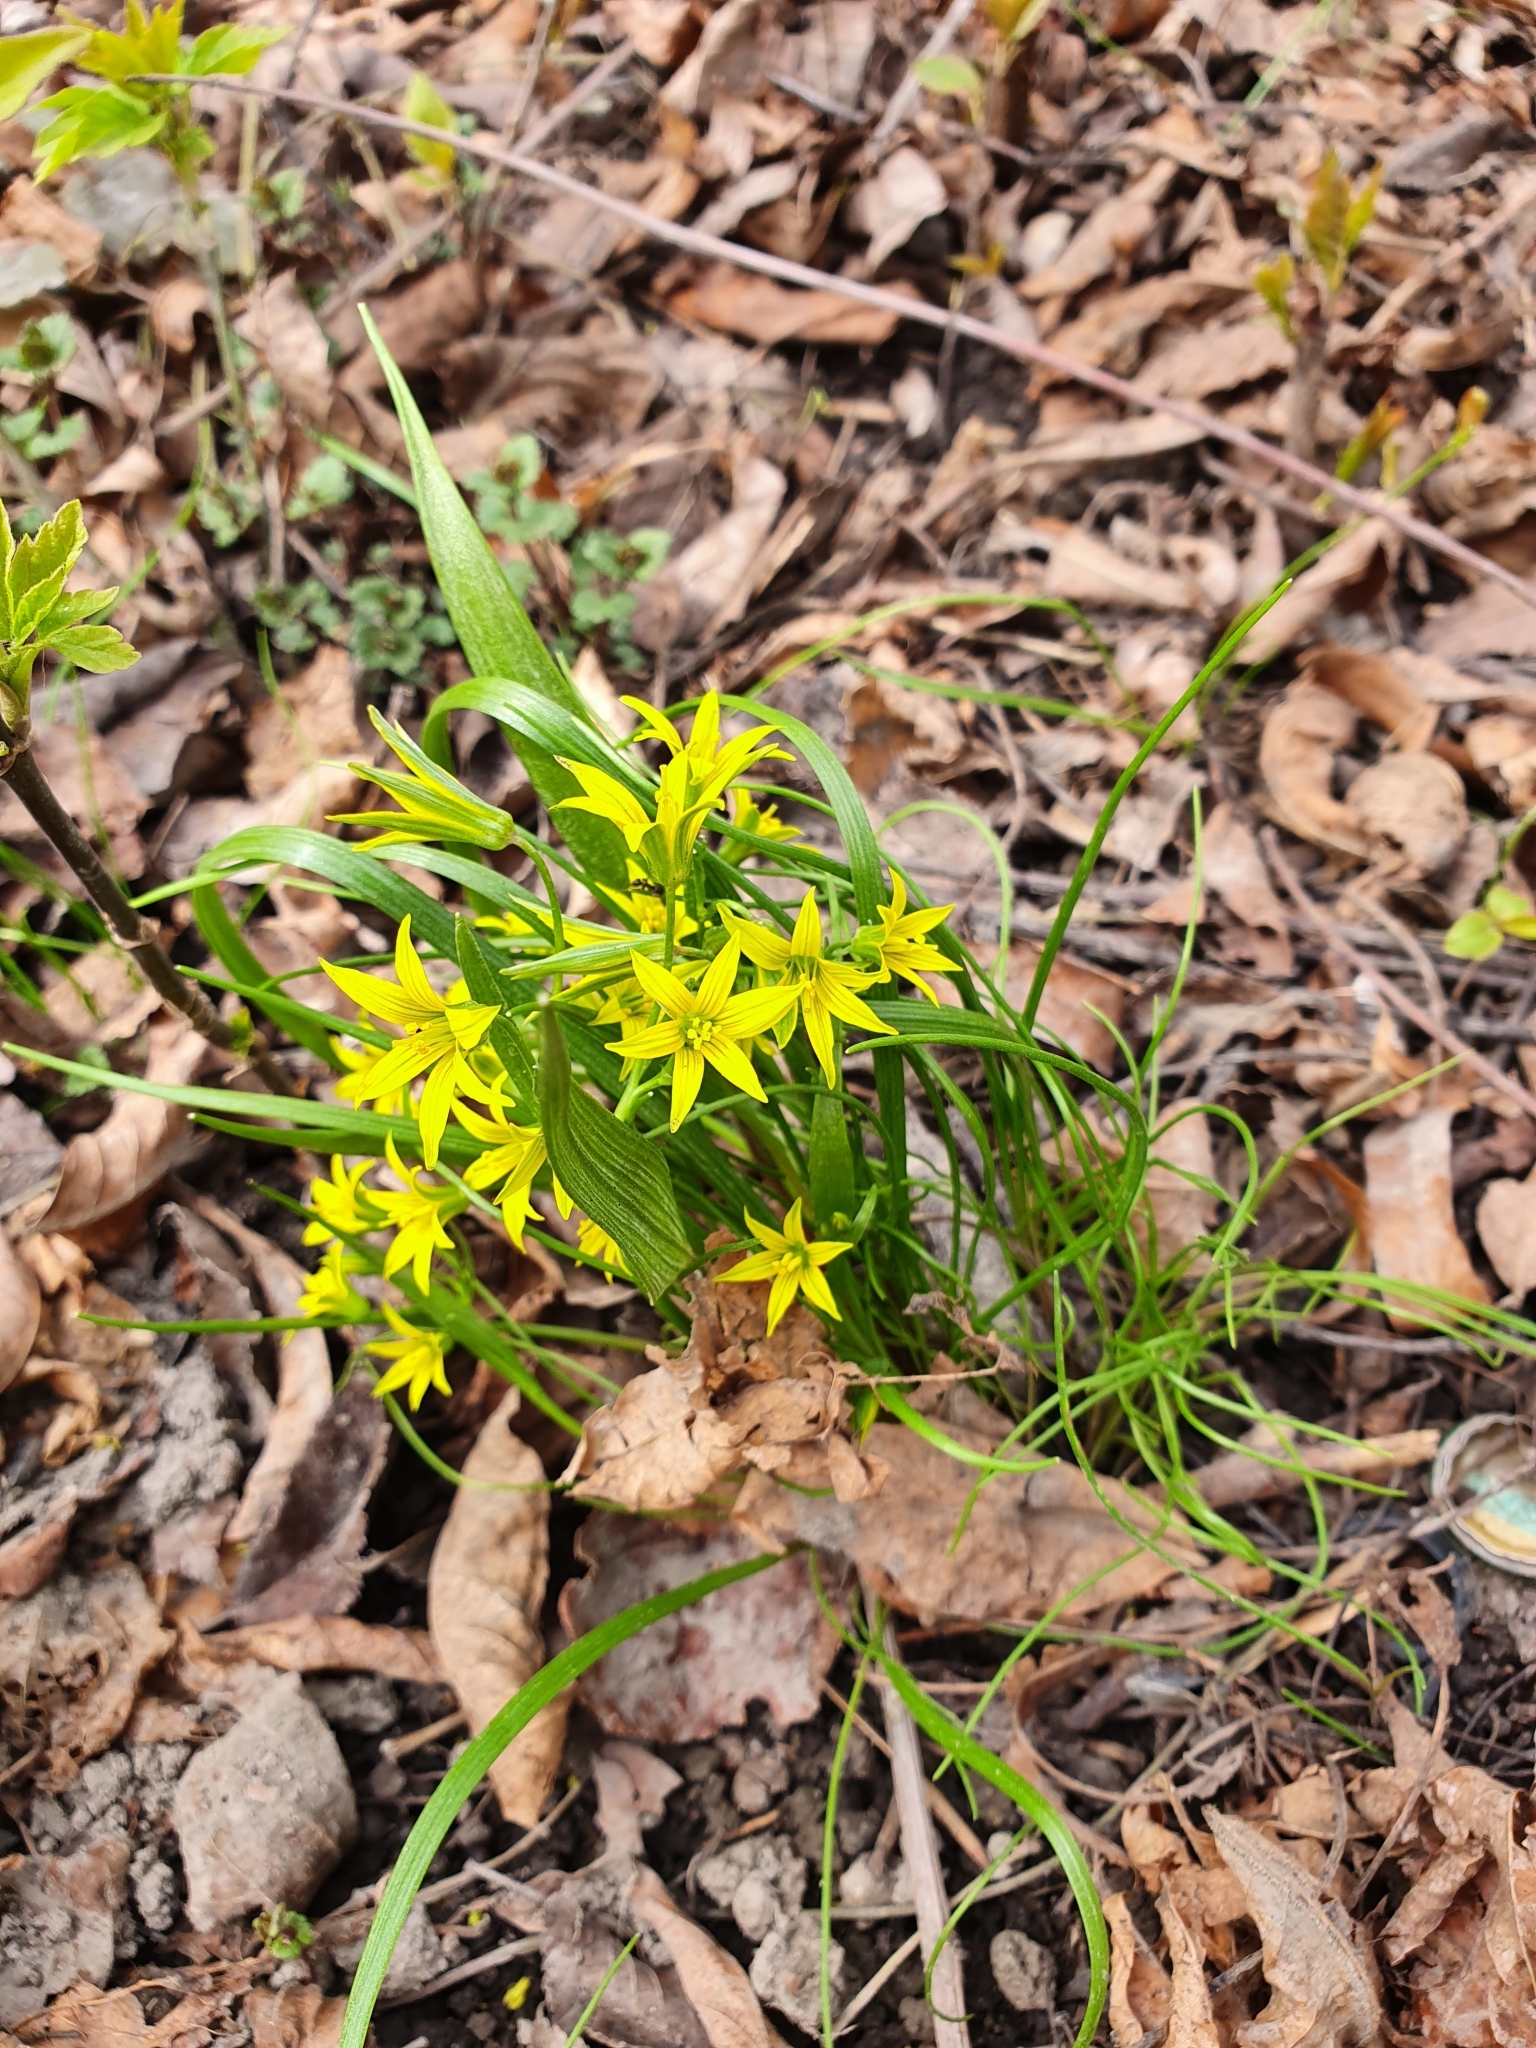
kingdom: Plantae
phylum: Tracheophyta
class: Liliopsida
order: Liliales
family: Liliaceae
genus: Gagea
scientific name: Gagea minima
